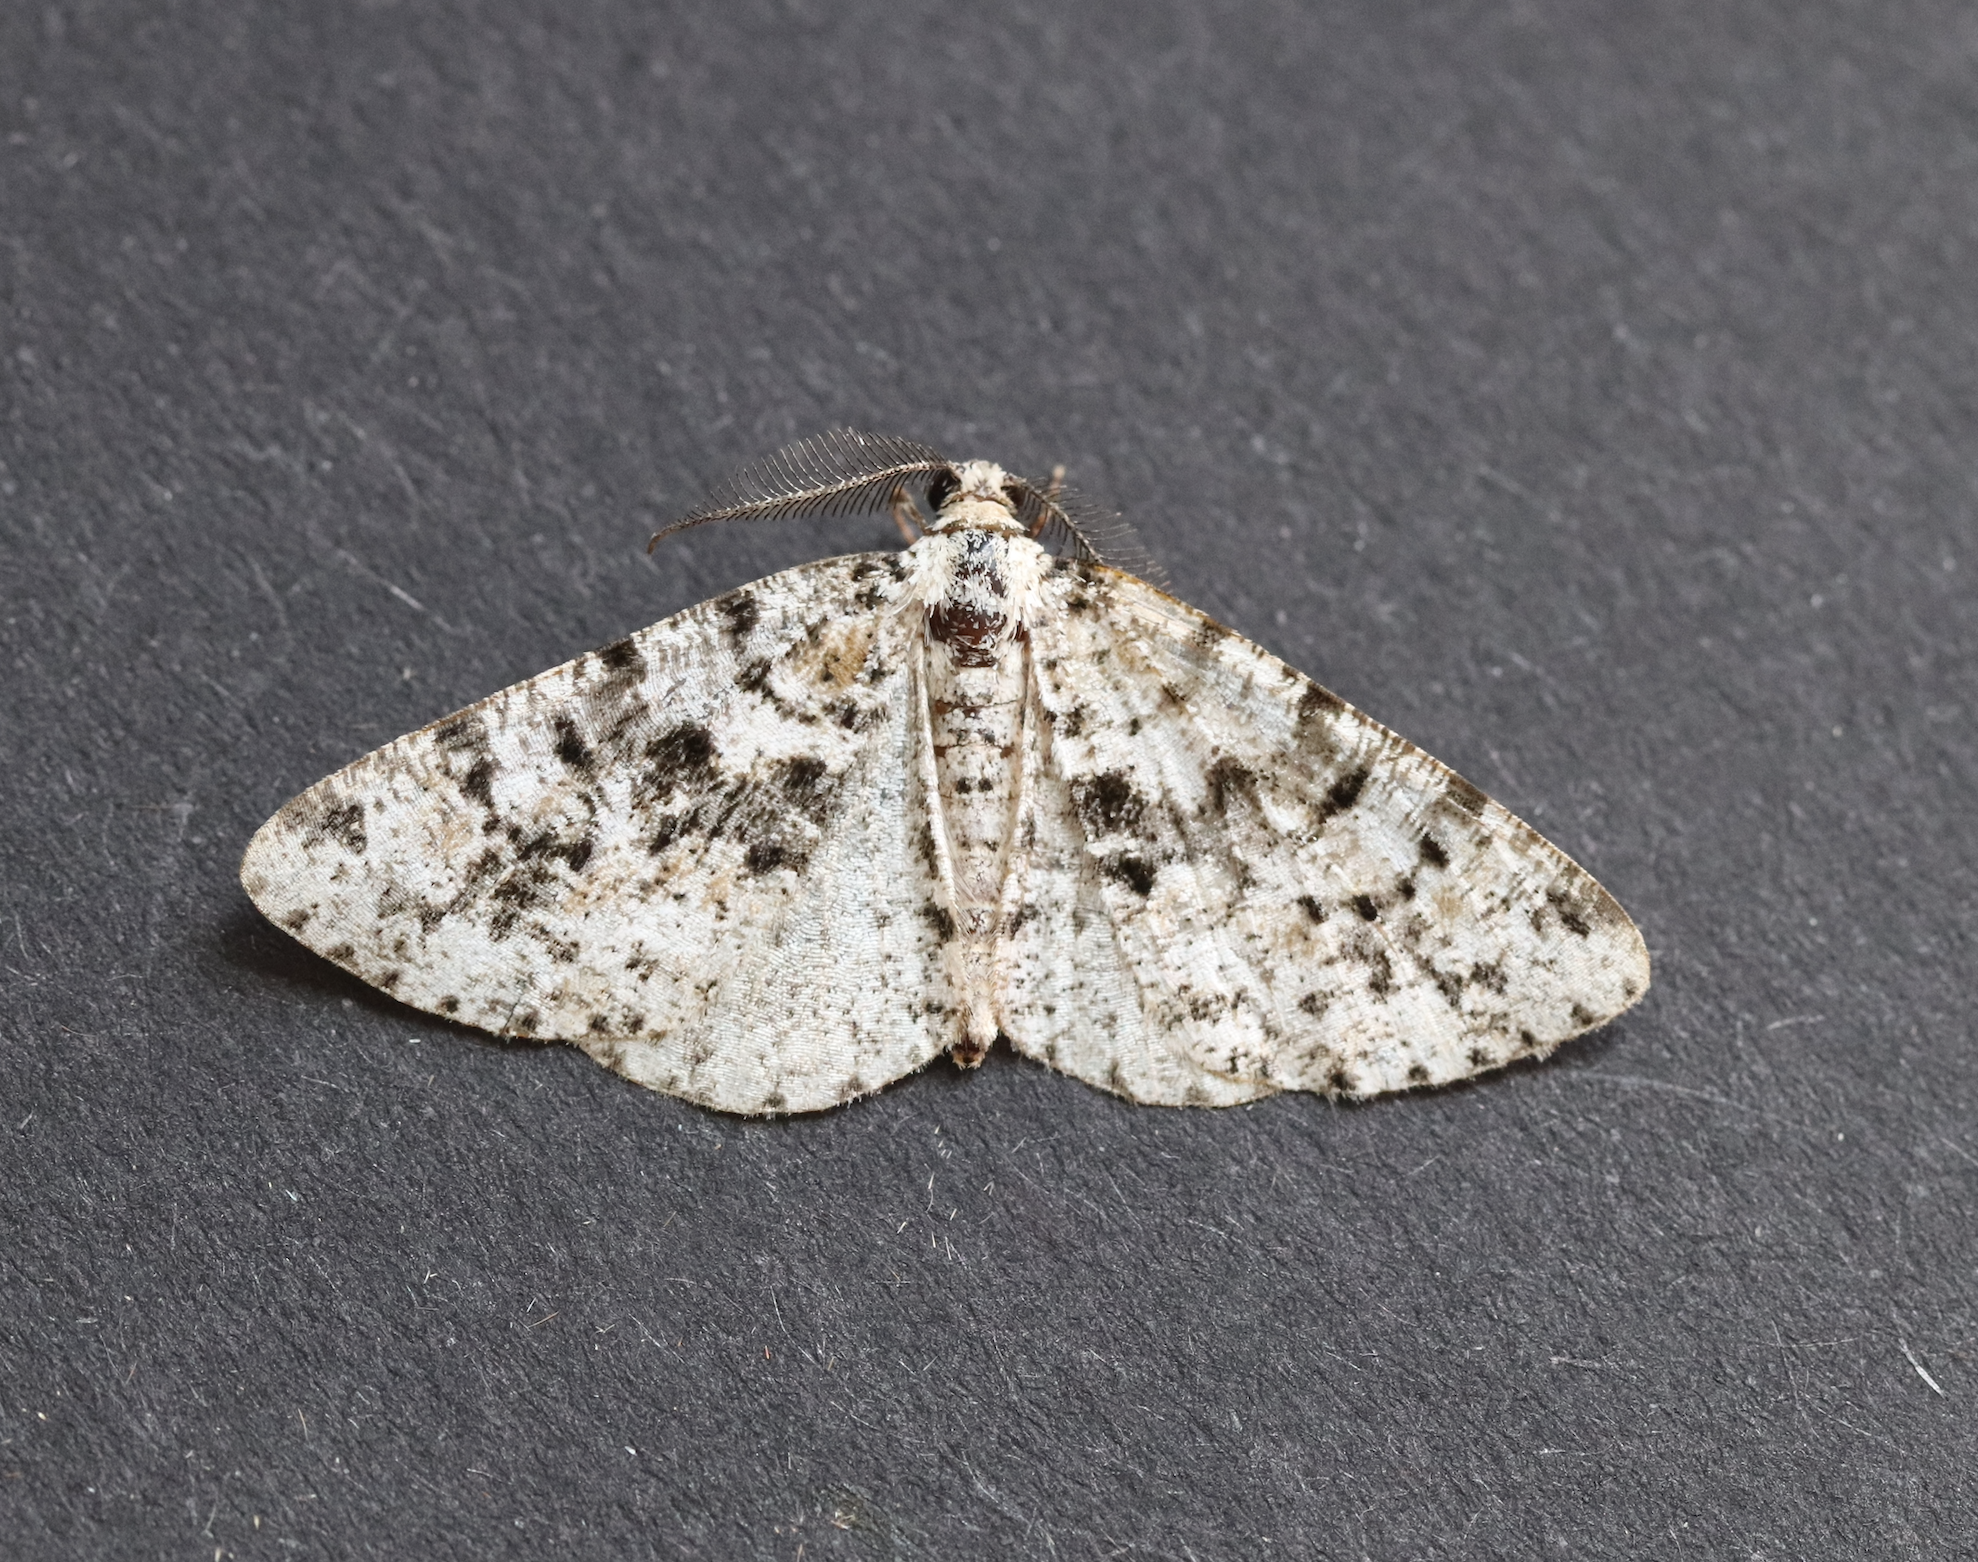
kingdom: Animalia
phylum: Arthropoda
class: Insecta
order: Lepidoptera
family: Geometridae
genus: Fagivorina
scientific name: Fagivorina arenaria
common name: Speckled beauty
